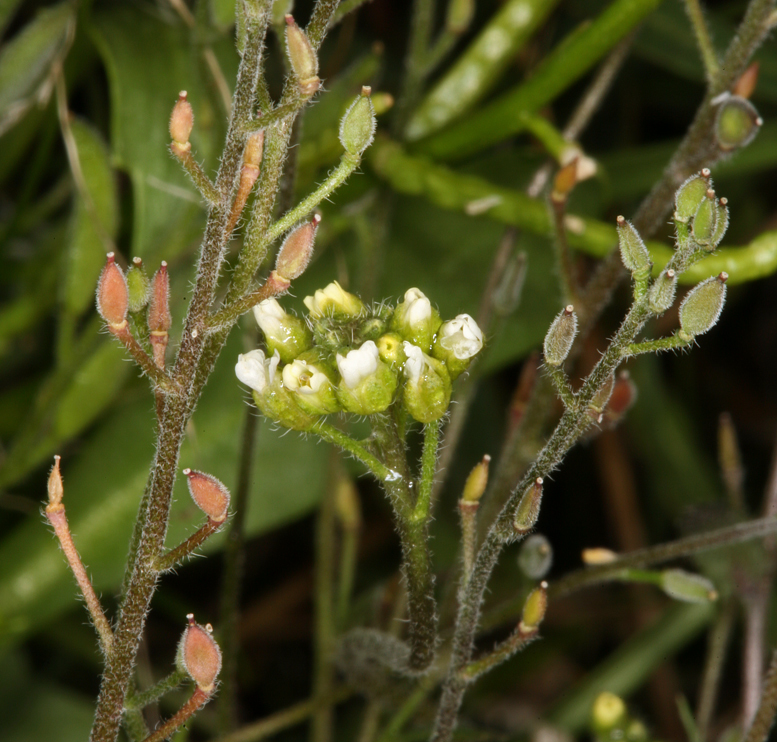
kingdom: Plantae
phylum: Tracheophyta
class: Magnoliopsida
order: Brassicales
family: Brassicaceae
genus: Draba
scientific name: Draba praealta
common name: Tall draba
